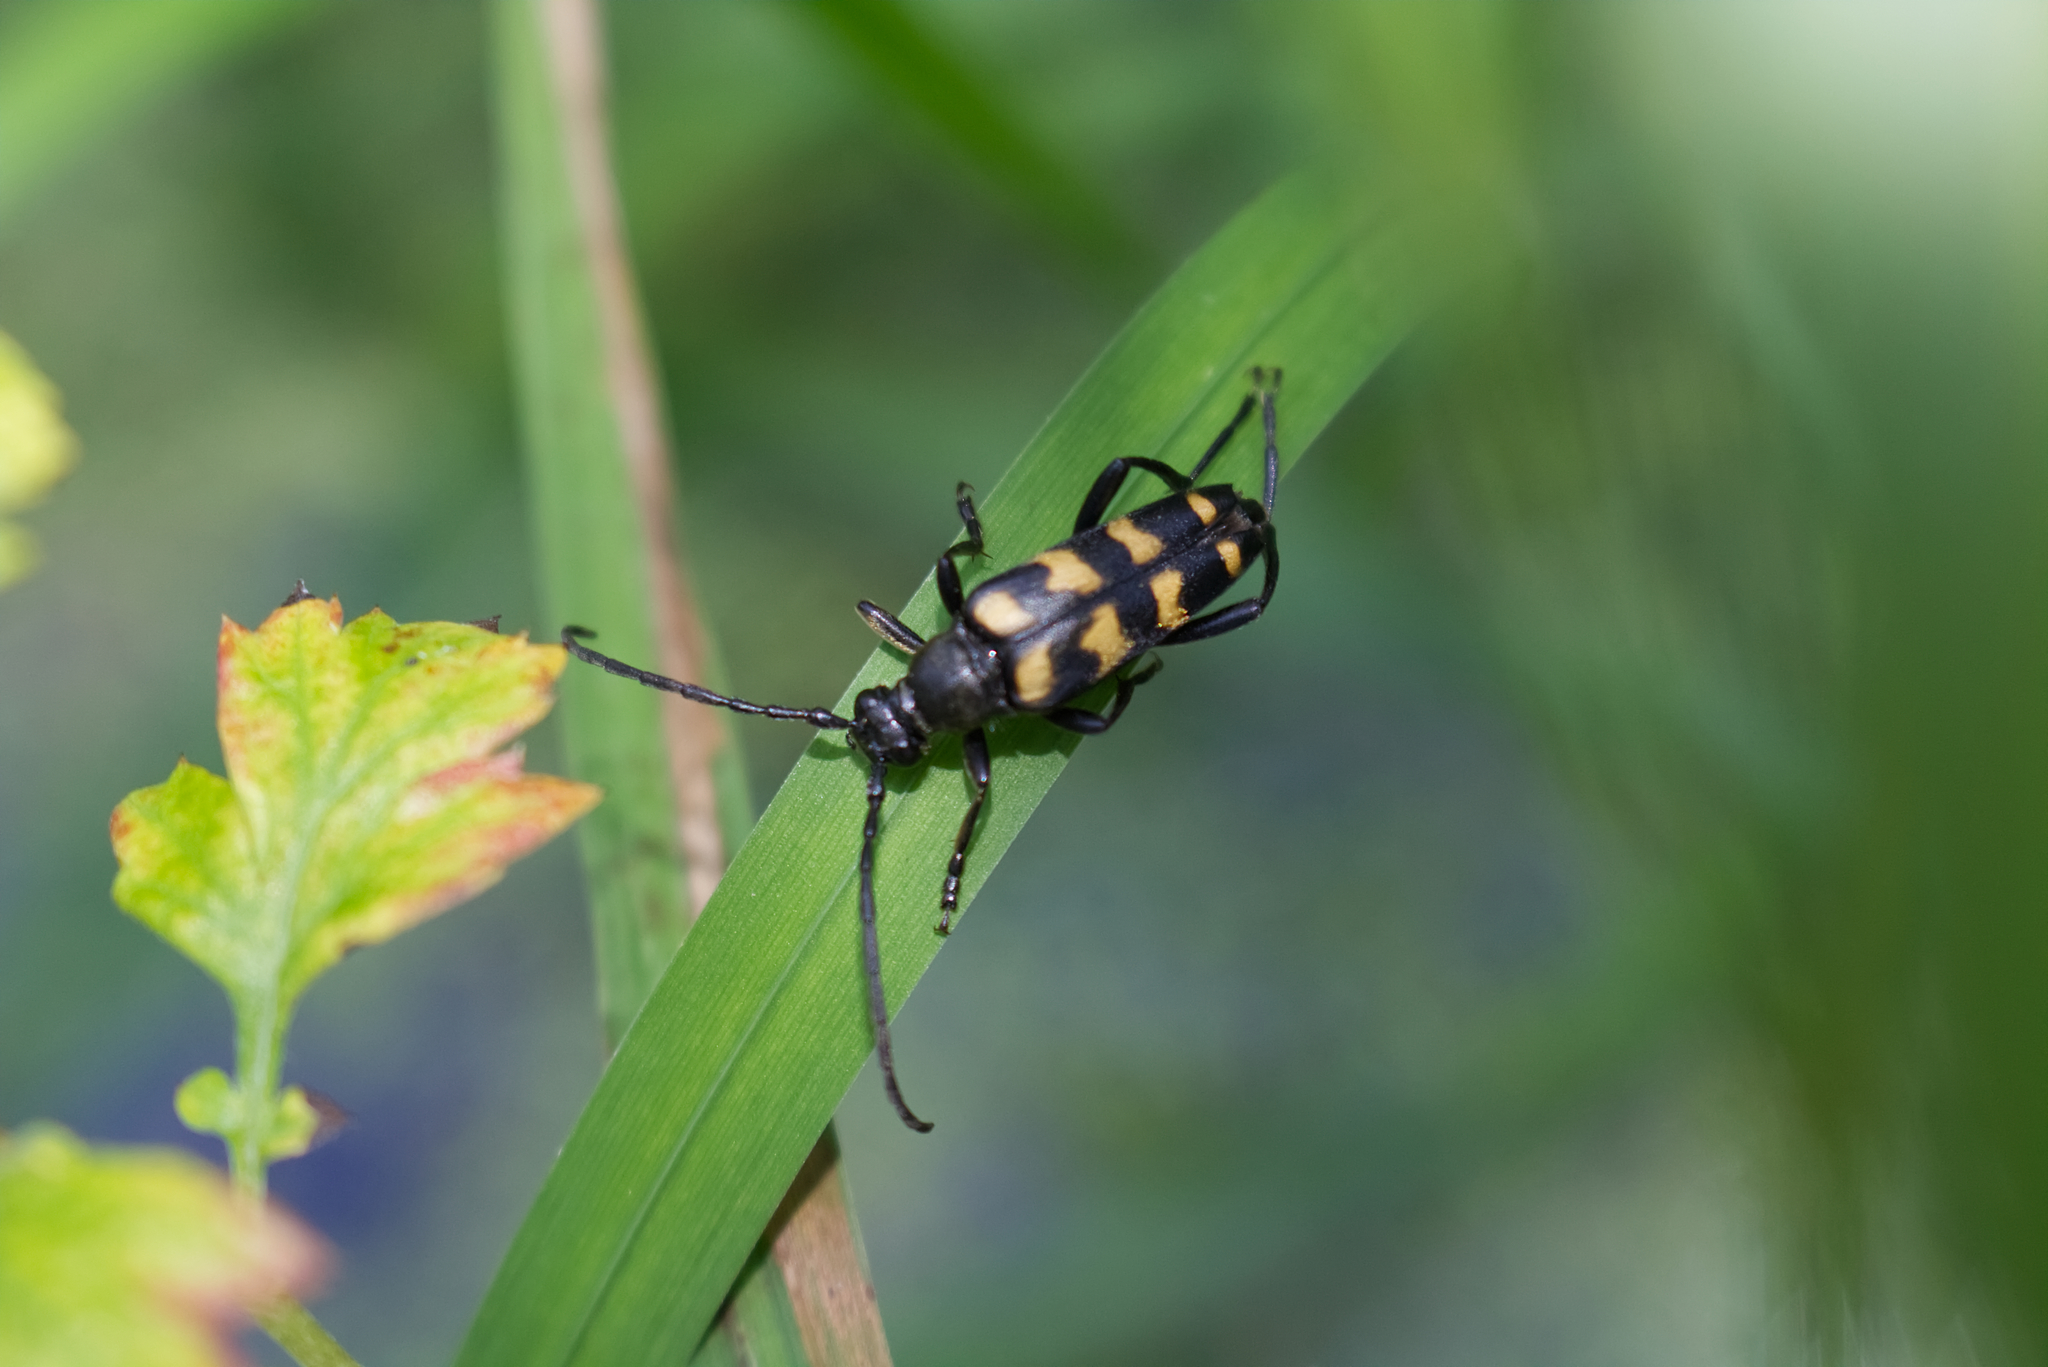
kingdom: Animalia
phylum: Arthropoda
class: Insecta
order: Coleoptera
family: Cerambycidae
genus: Leptura
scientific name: Leptura quadrifasciata
